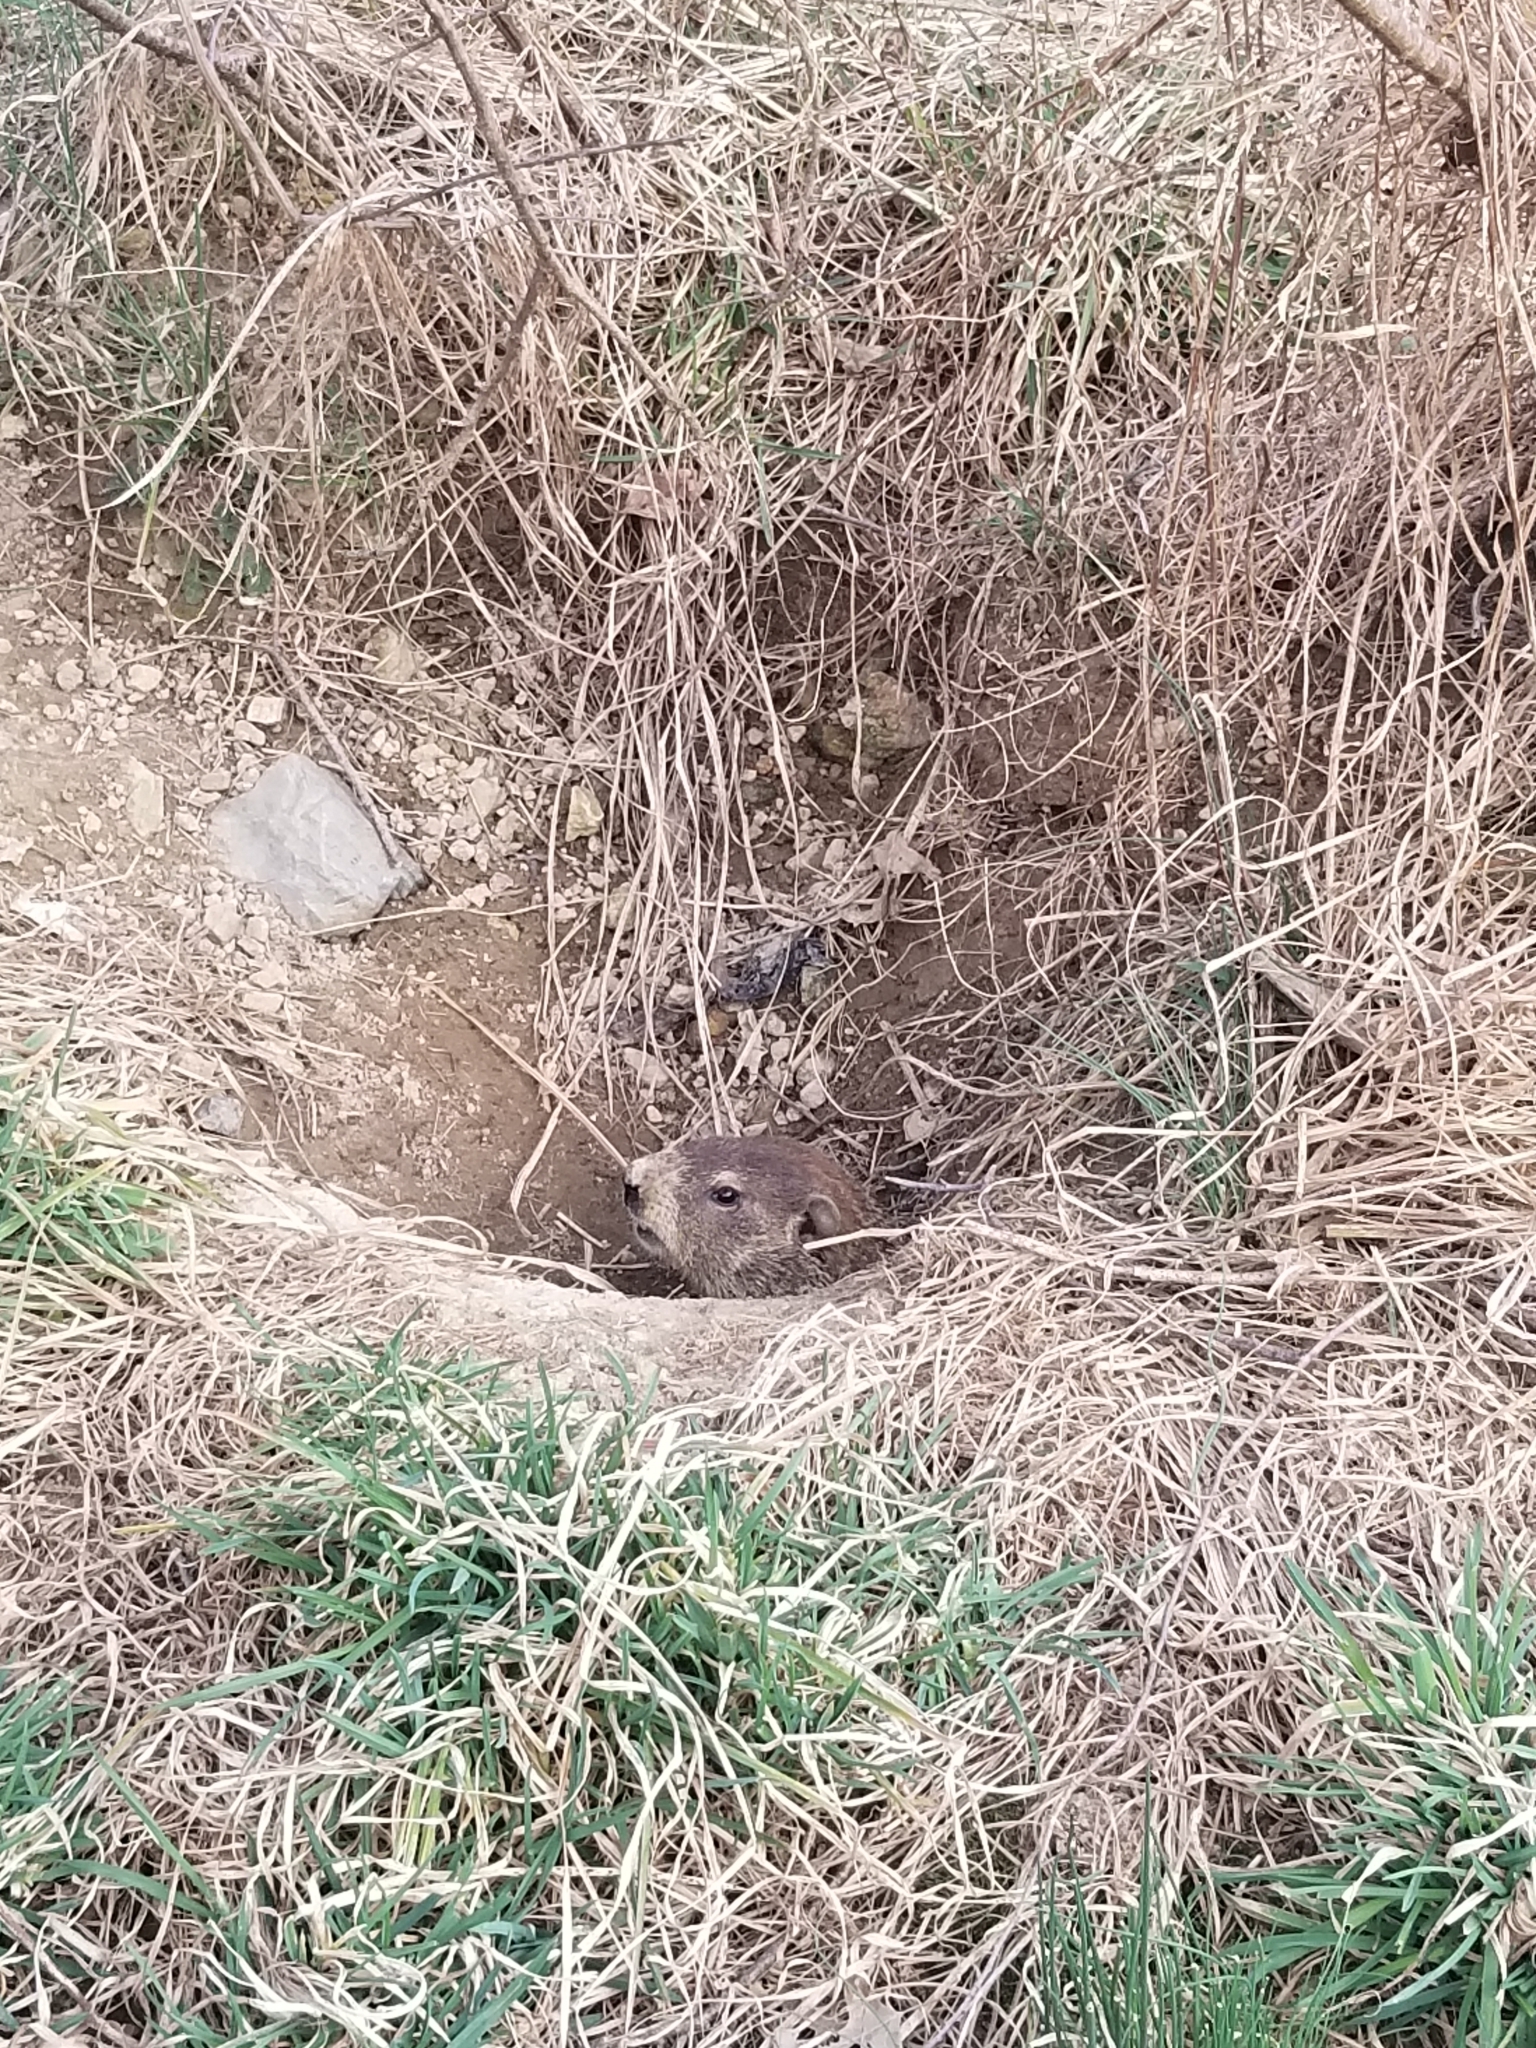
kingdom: Animalia
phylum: Chordata
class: Mammalia
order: Rodentia
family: Sciuridae
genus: Marmota
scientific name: Marmota monax
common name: Groundhog
